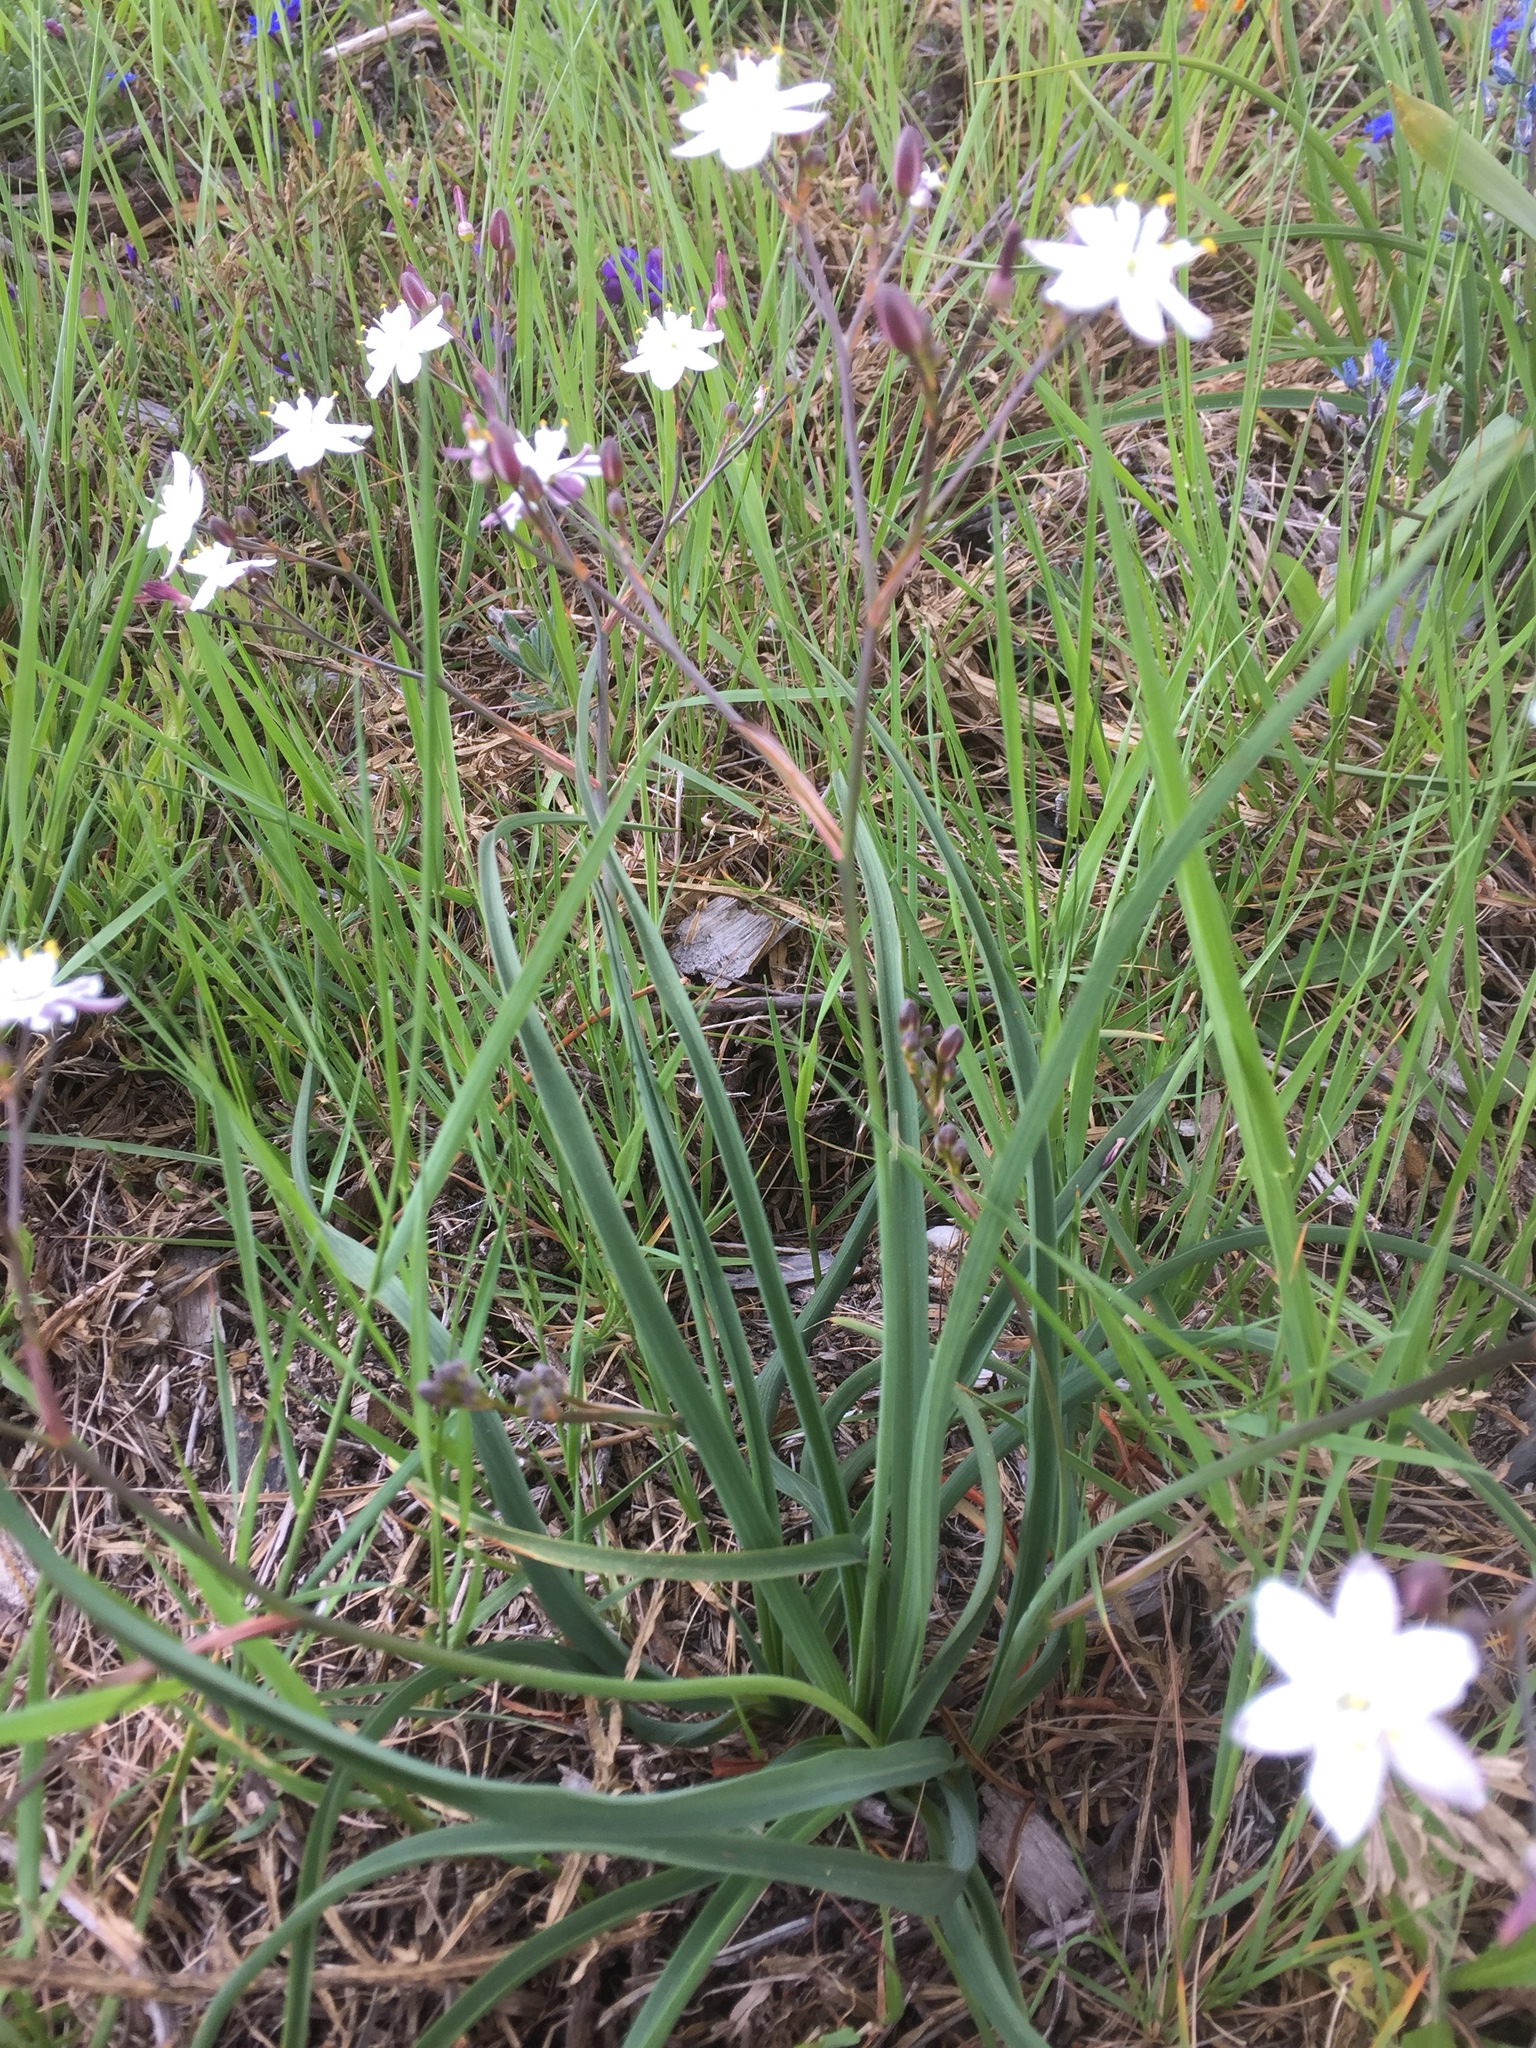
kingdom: Plantae
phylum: Tracheophyta
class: Liliopsida
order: Asparagales
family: Asphodelaceae
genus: Simethis
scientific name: Simethis mattiazzii
